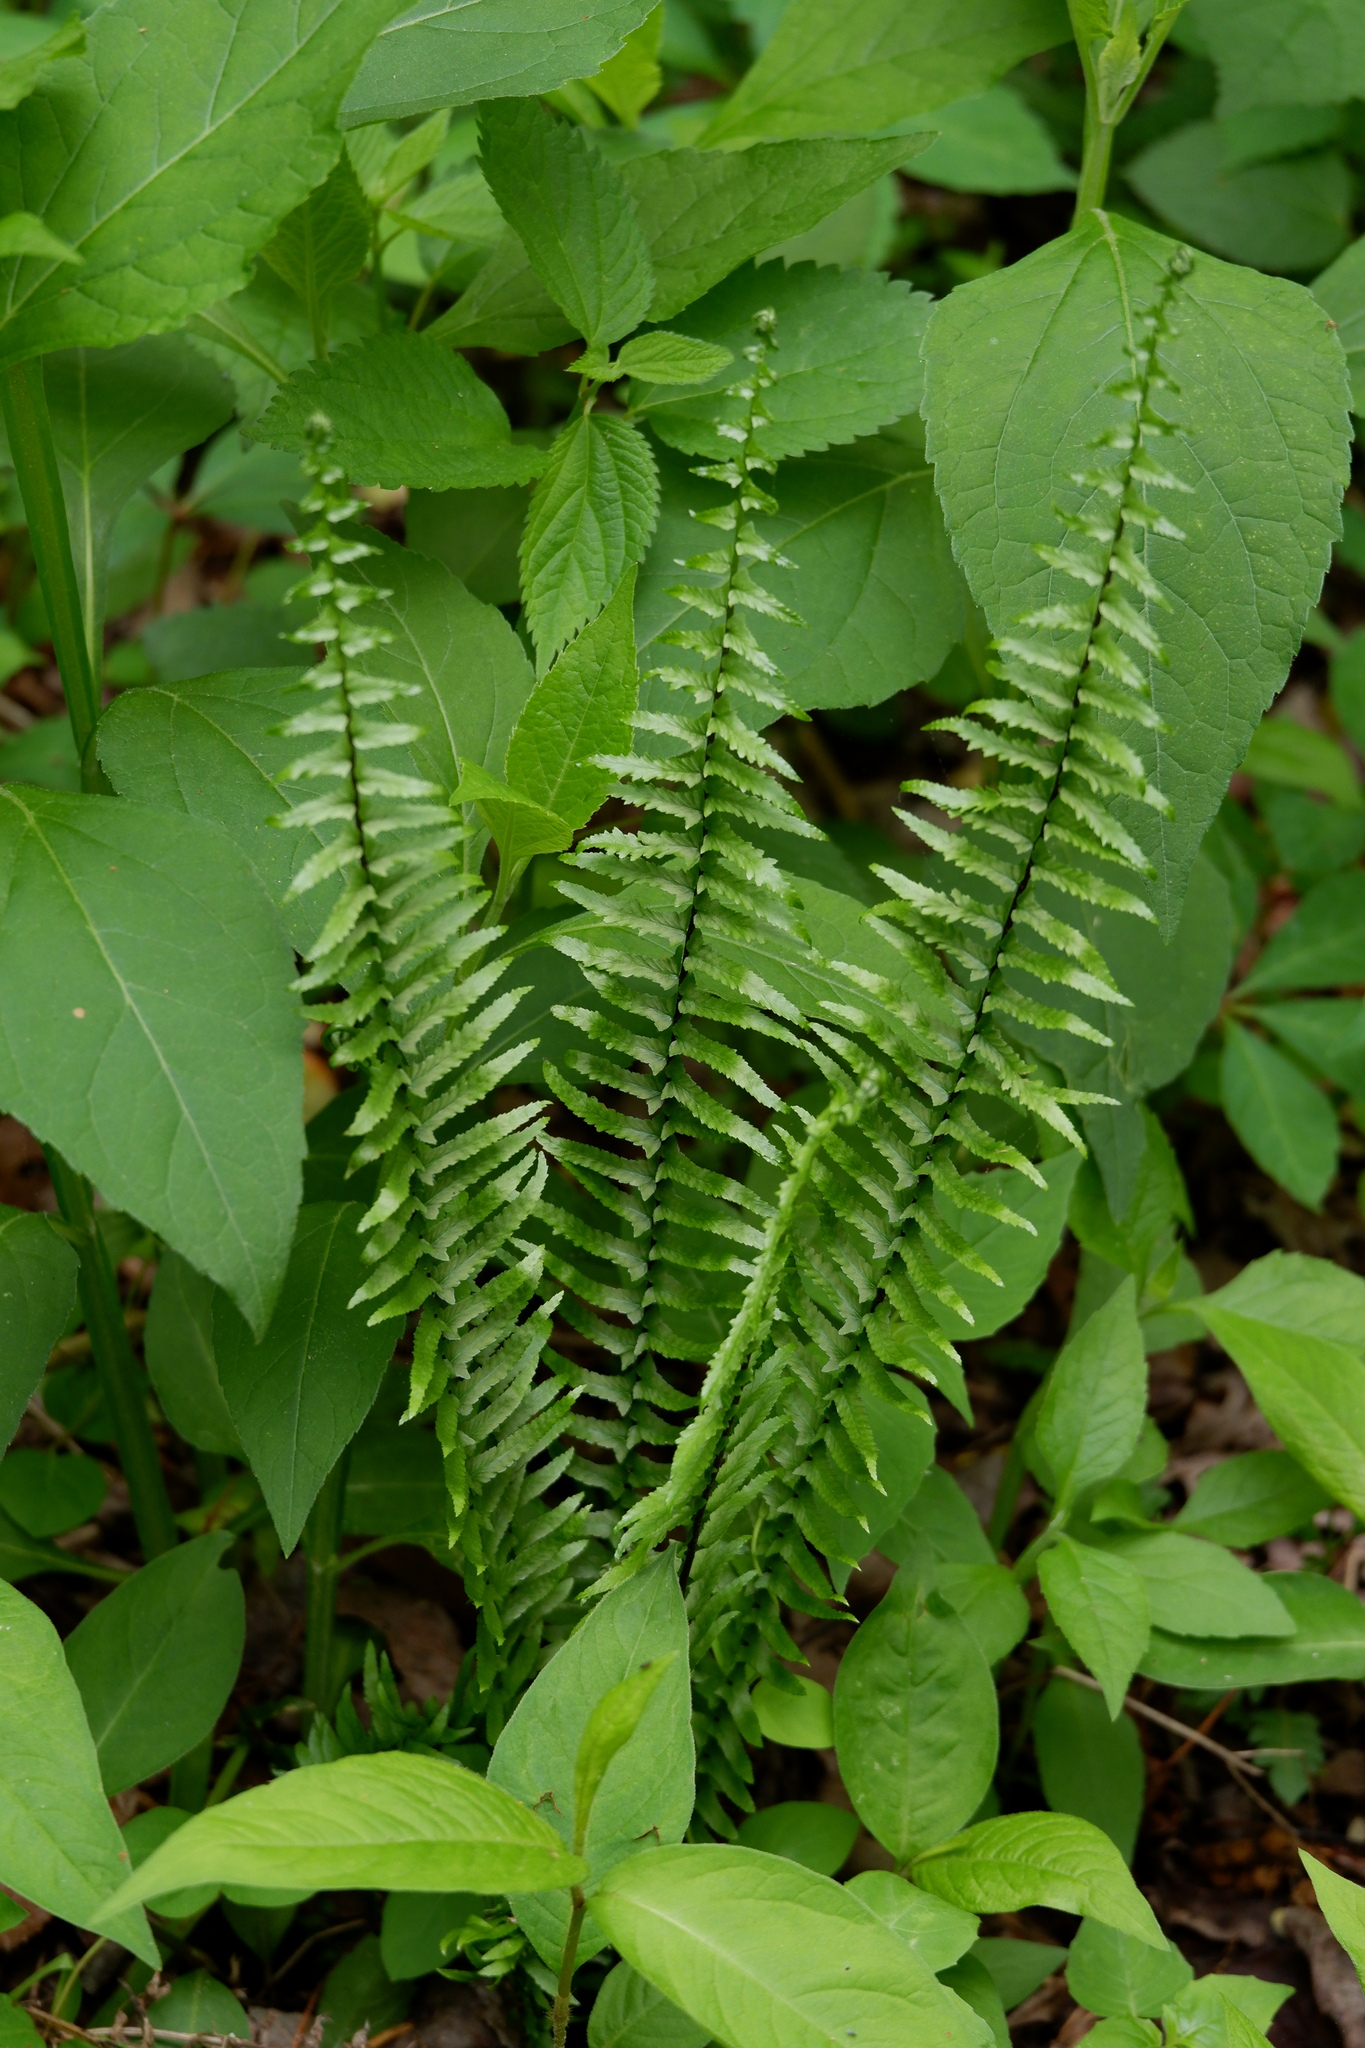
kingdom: Plantae
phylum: Tracheophyta
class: Polypodiopsida
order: Polypodiales
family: Aspleniaceae
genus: Asplenium
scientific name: Asplenium platyneuron
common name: Ebony spleenwort
